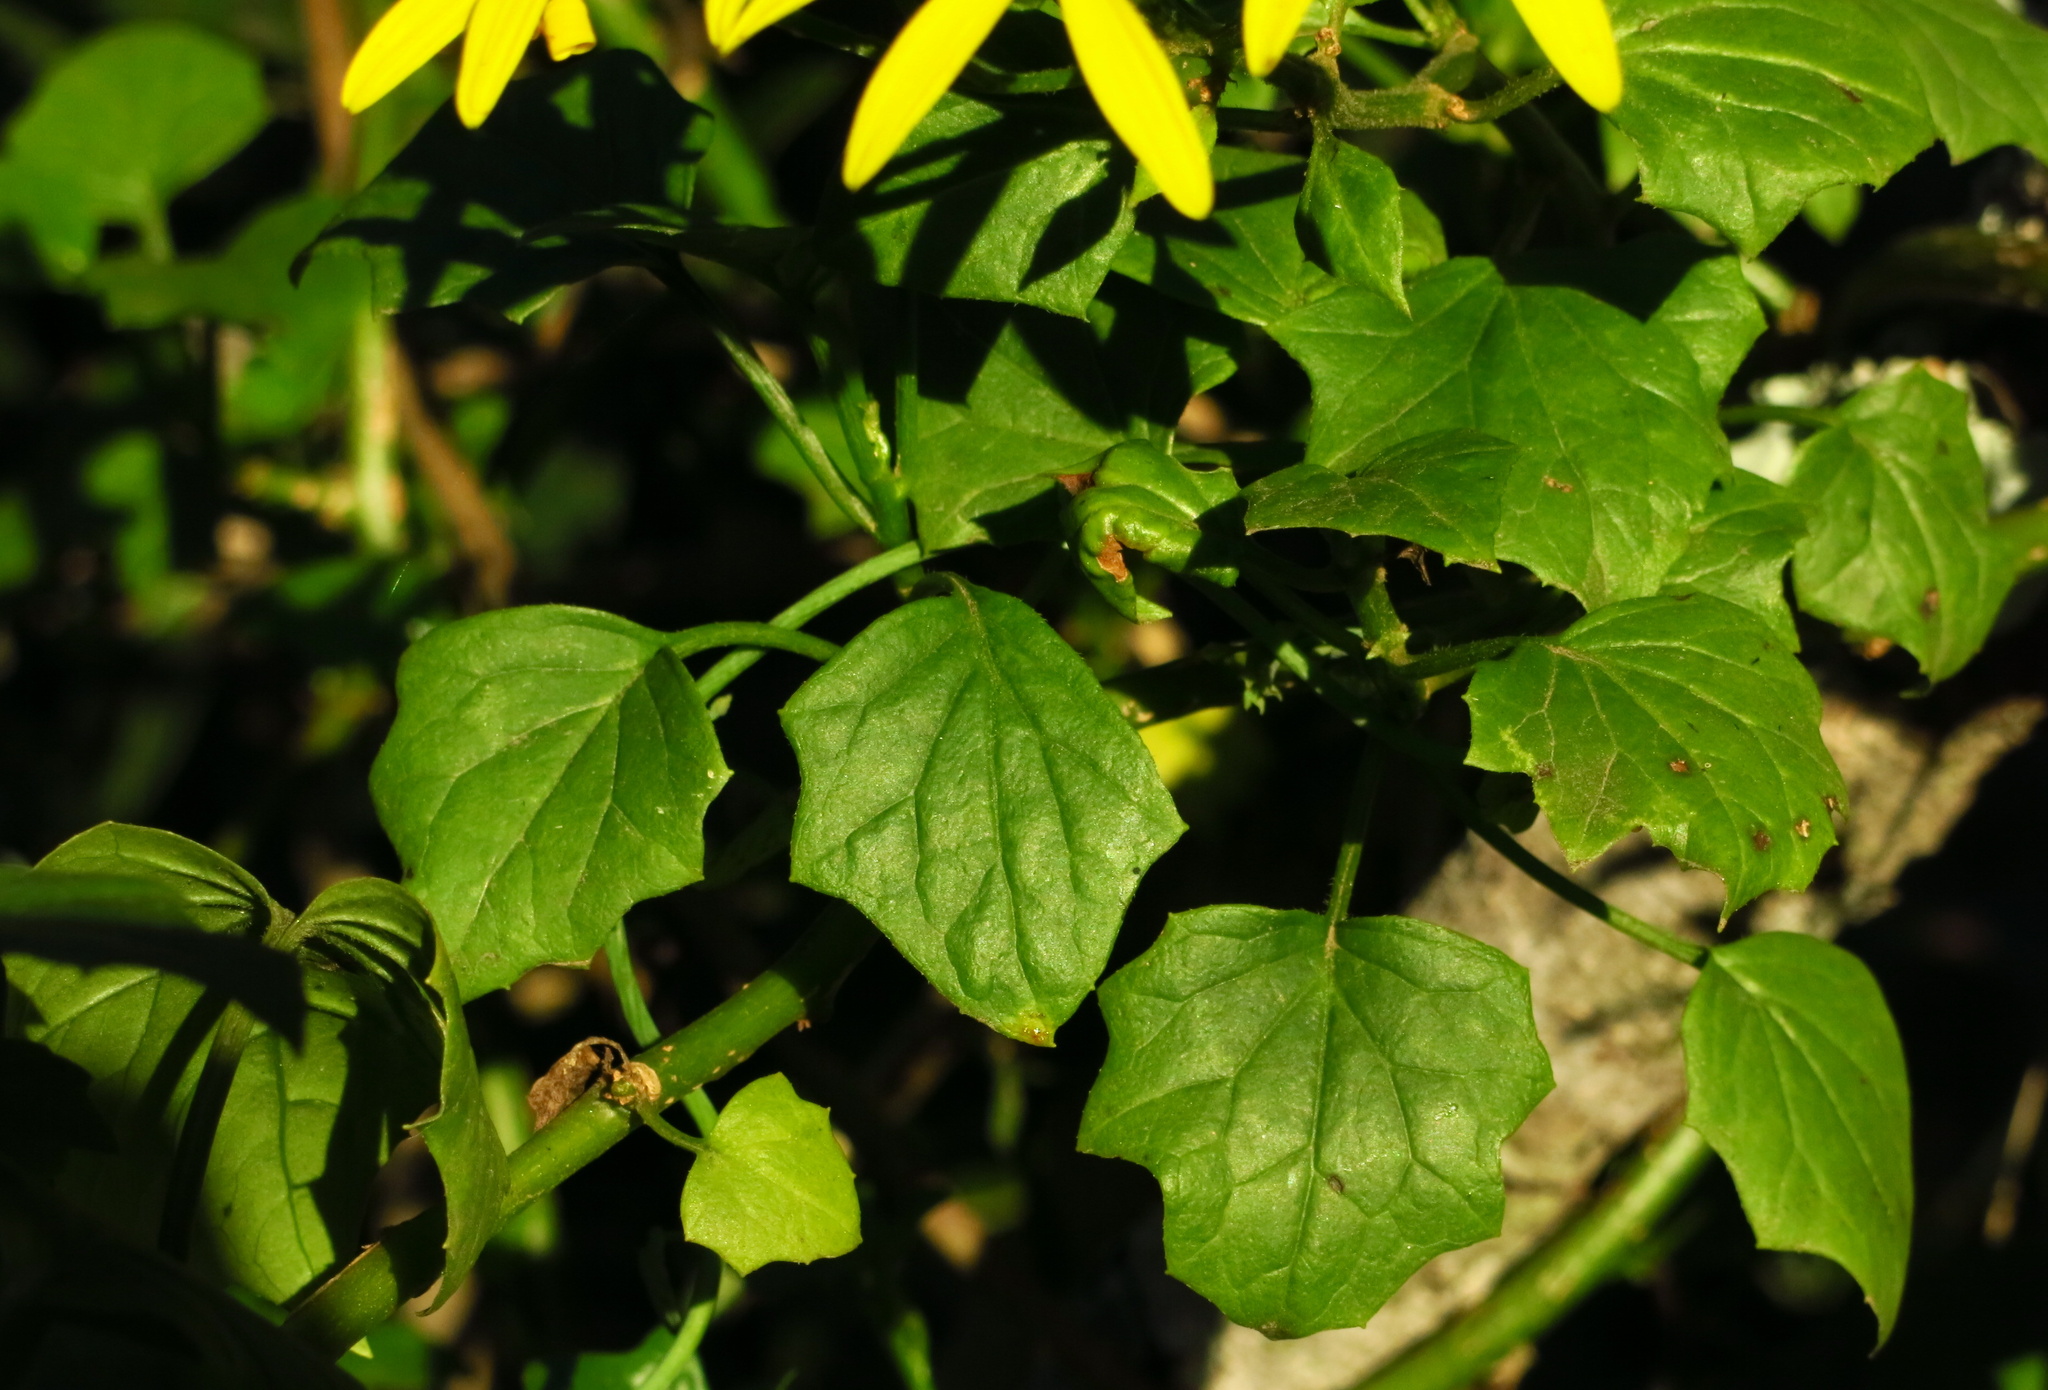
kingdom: Plantae
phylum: Tracheophyta
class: Magnoliopsida
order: Asterales
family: Asteraceae
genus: Senecio
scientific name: Senecio tamoides
